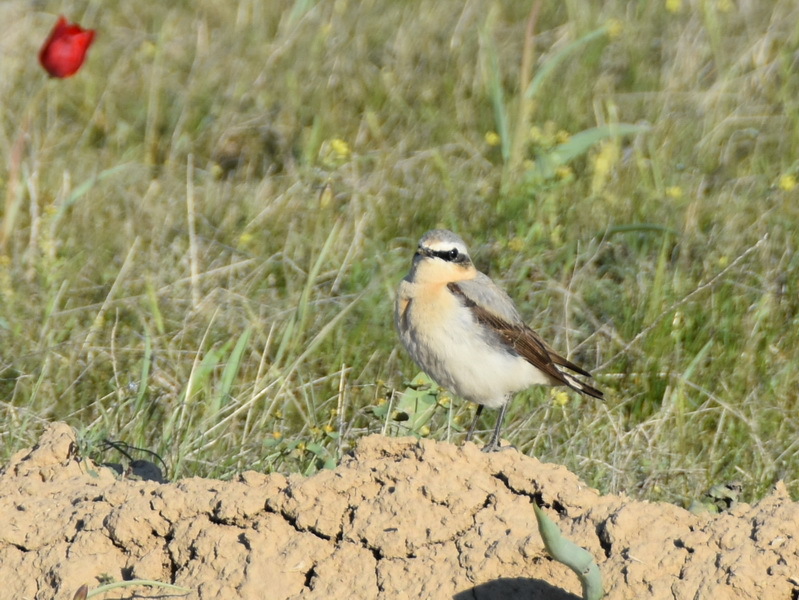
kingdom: Animalia
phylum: Chordata
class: Aves
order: Passeriformes
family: Muscicapidae
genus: Oenanthe
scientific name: Oenanthe oenanthe
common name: Northern wheatear
